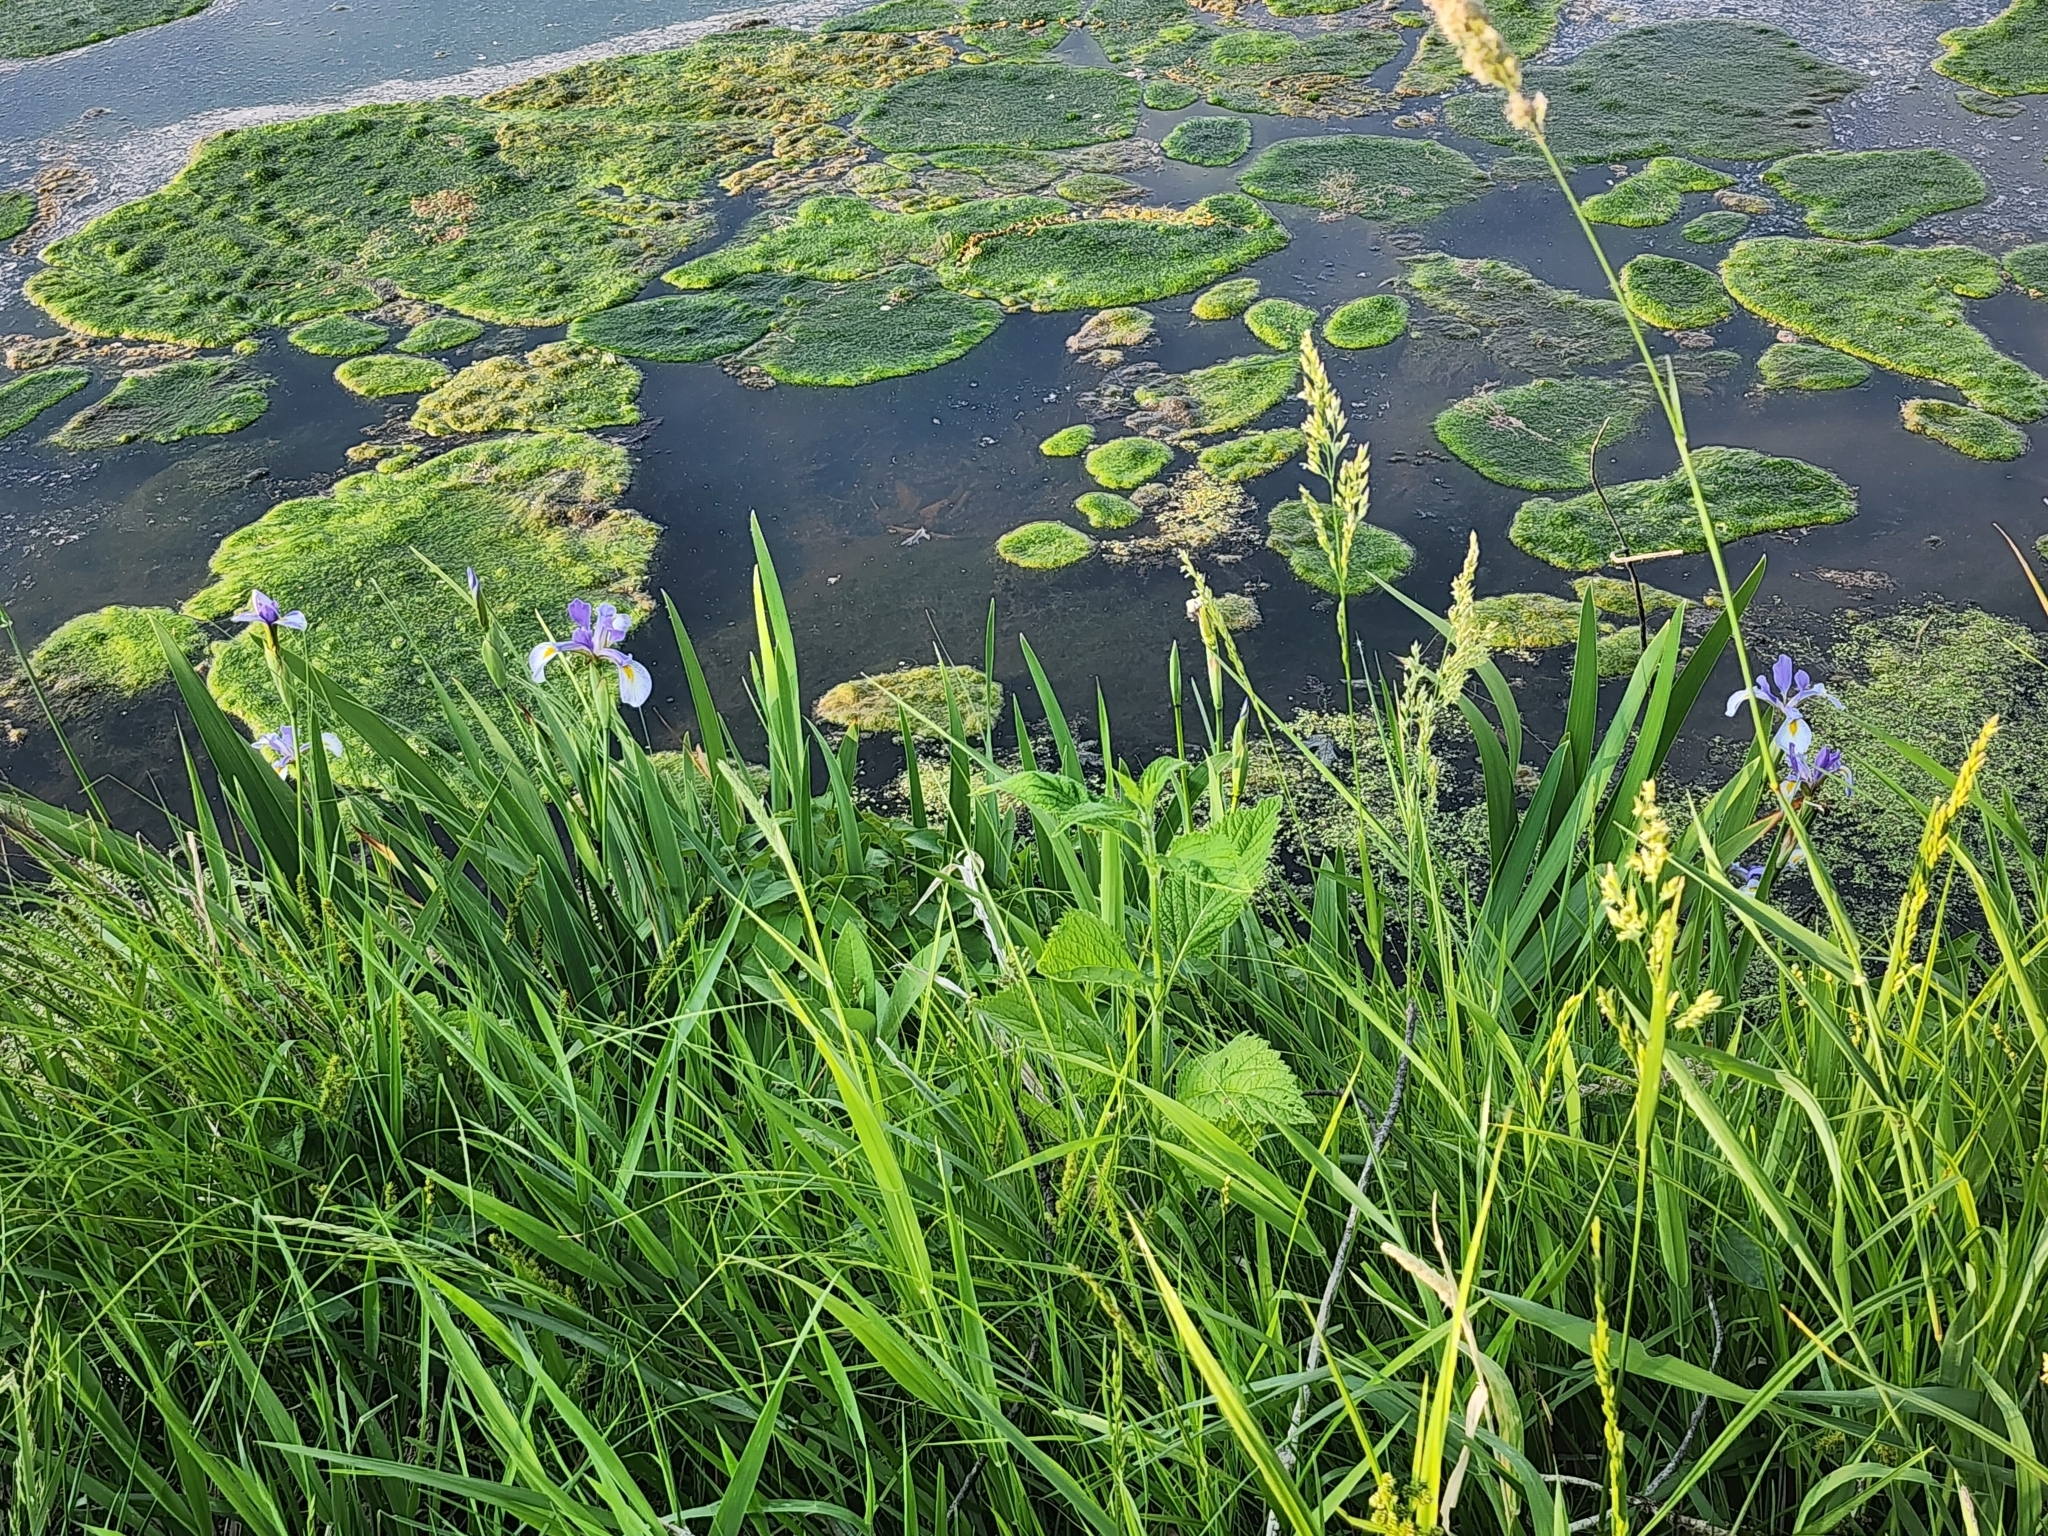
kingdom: Plantae
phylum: Tracheophyta
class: Liliopsida
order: Asparagales
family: Iridaceae
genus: Iris
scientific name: Iris virginica
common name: Southern blue flag
